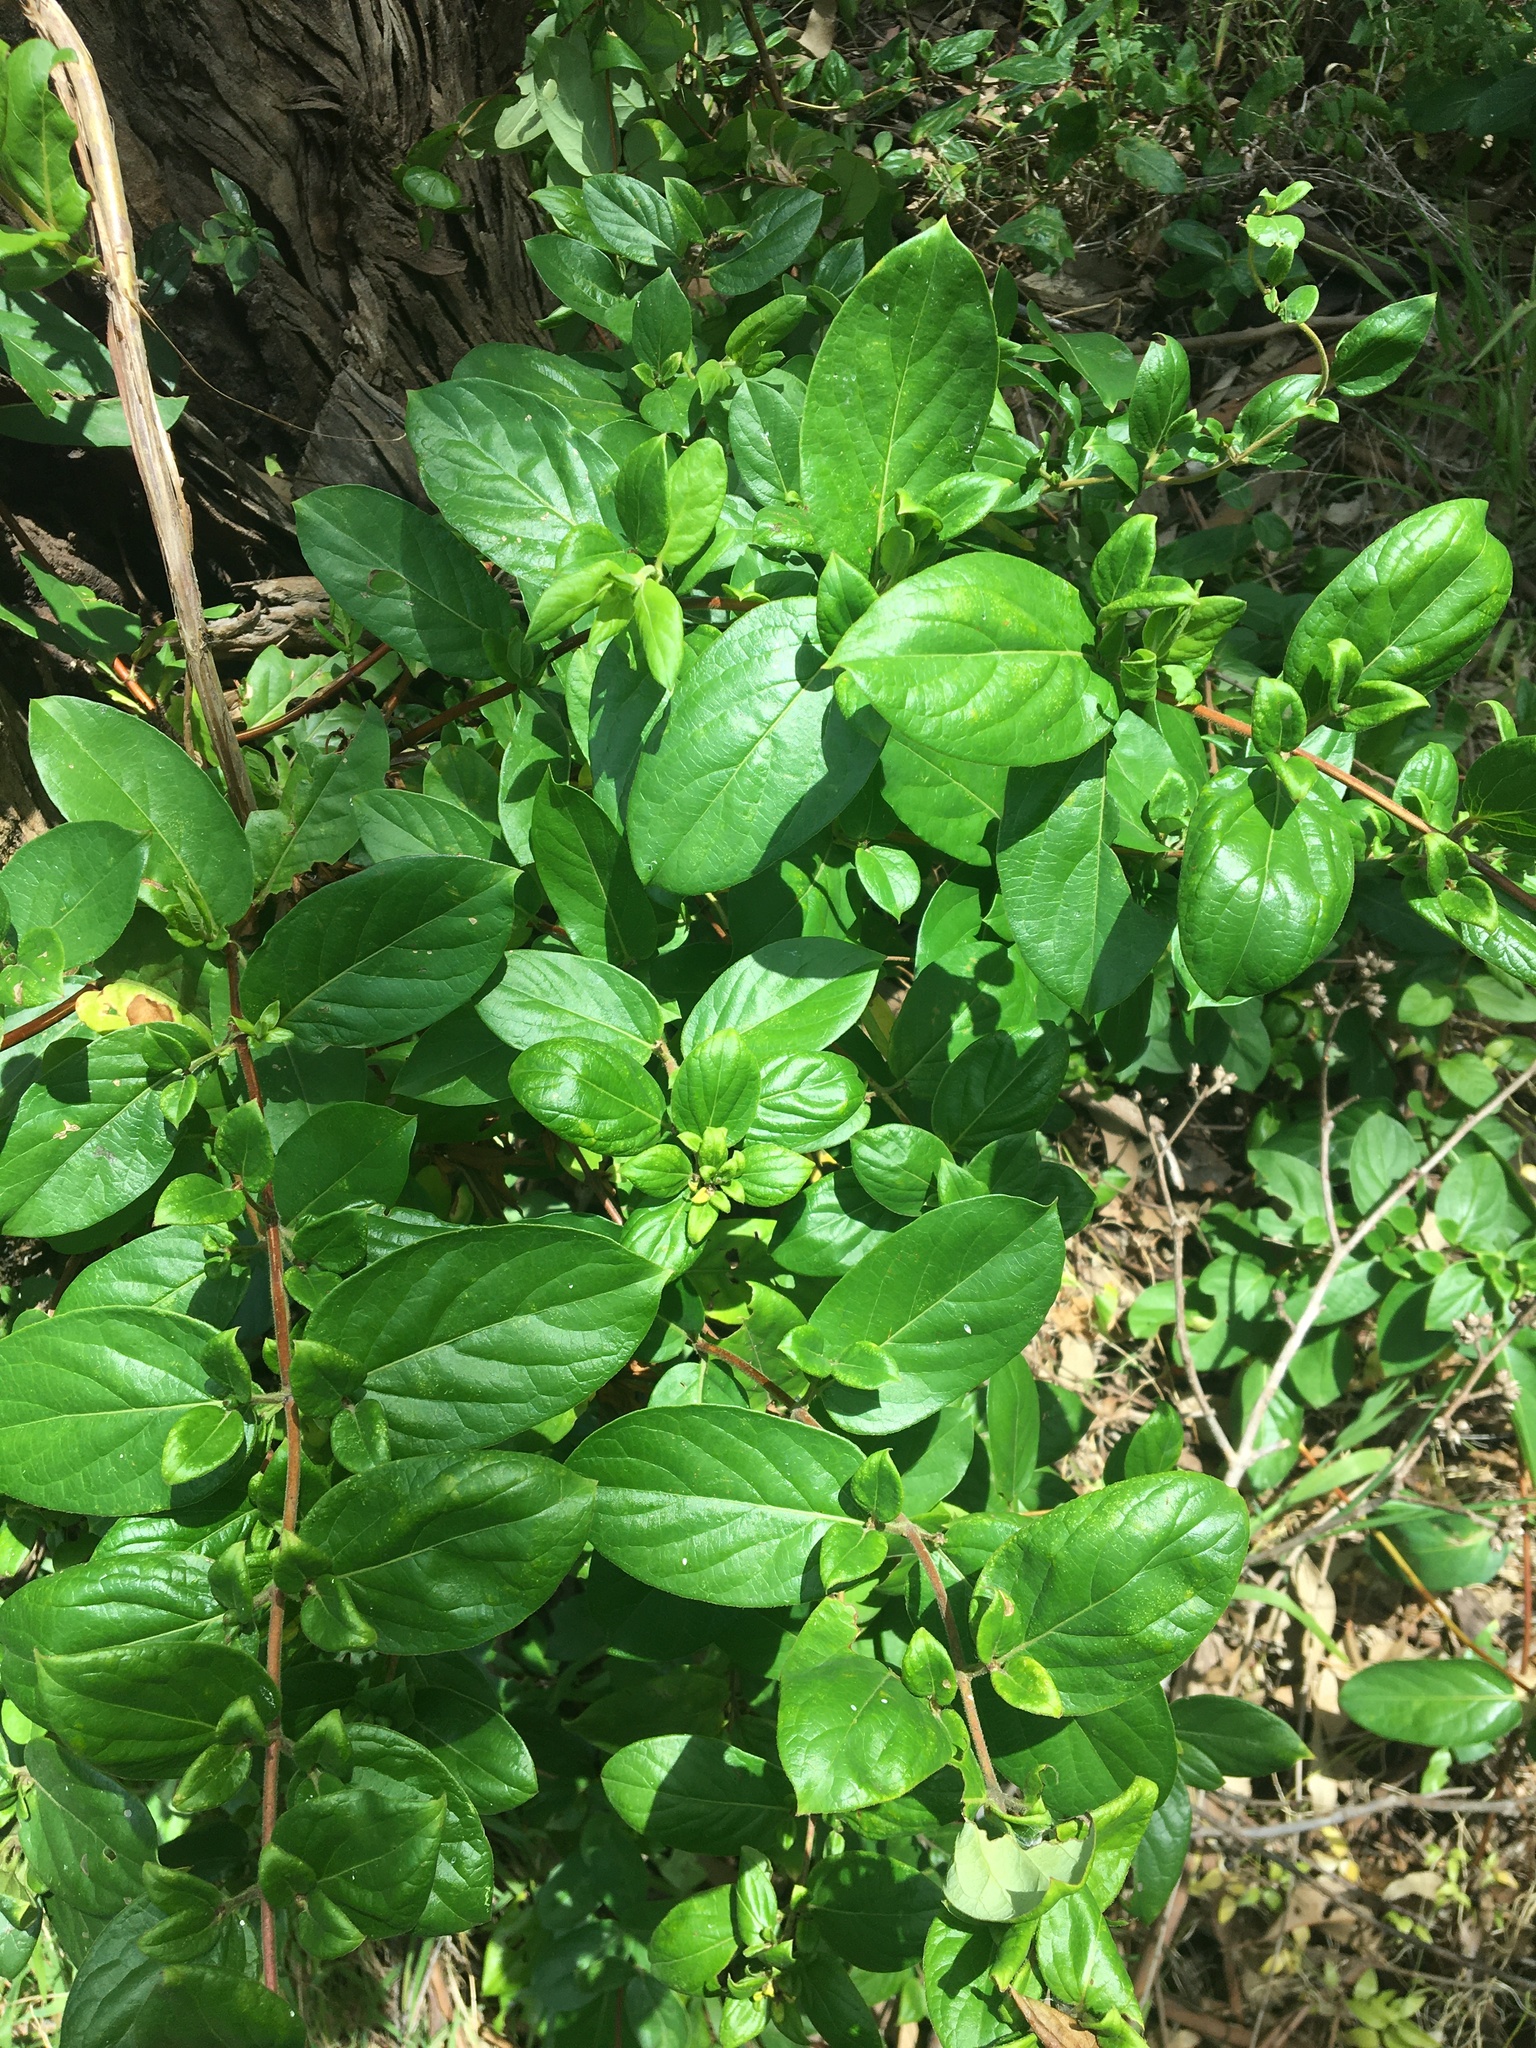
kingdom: Plantae
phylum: Tracheophyta
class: Magnoliopsida
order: Dipsacales
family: Caprifoliaceae
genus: Lonicera
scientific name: Lonicera japonica
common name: Japanese honeysuckle
